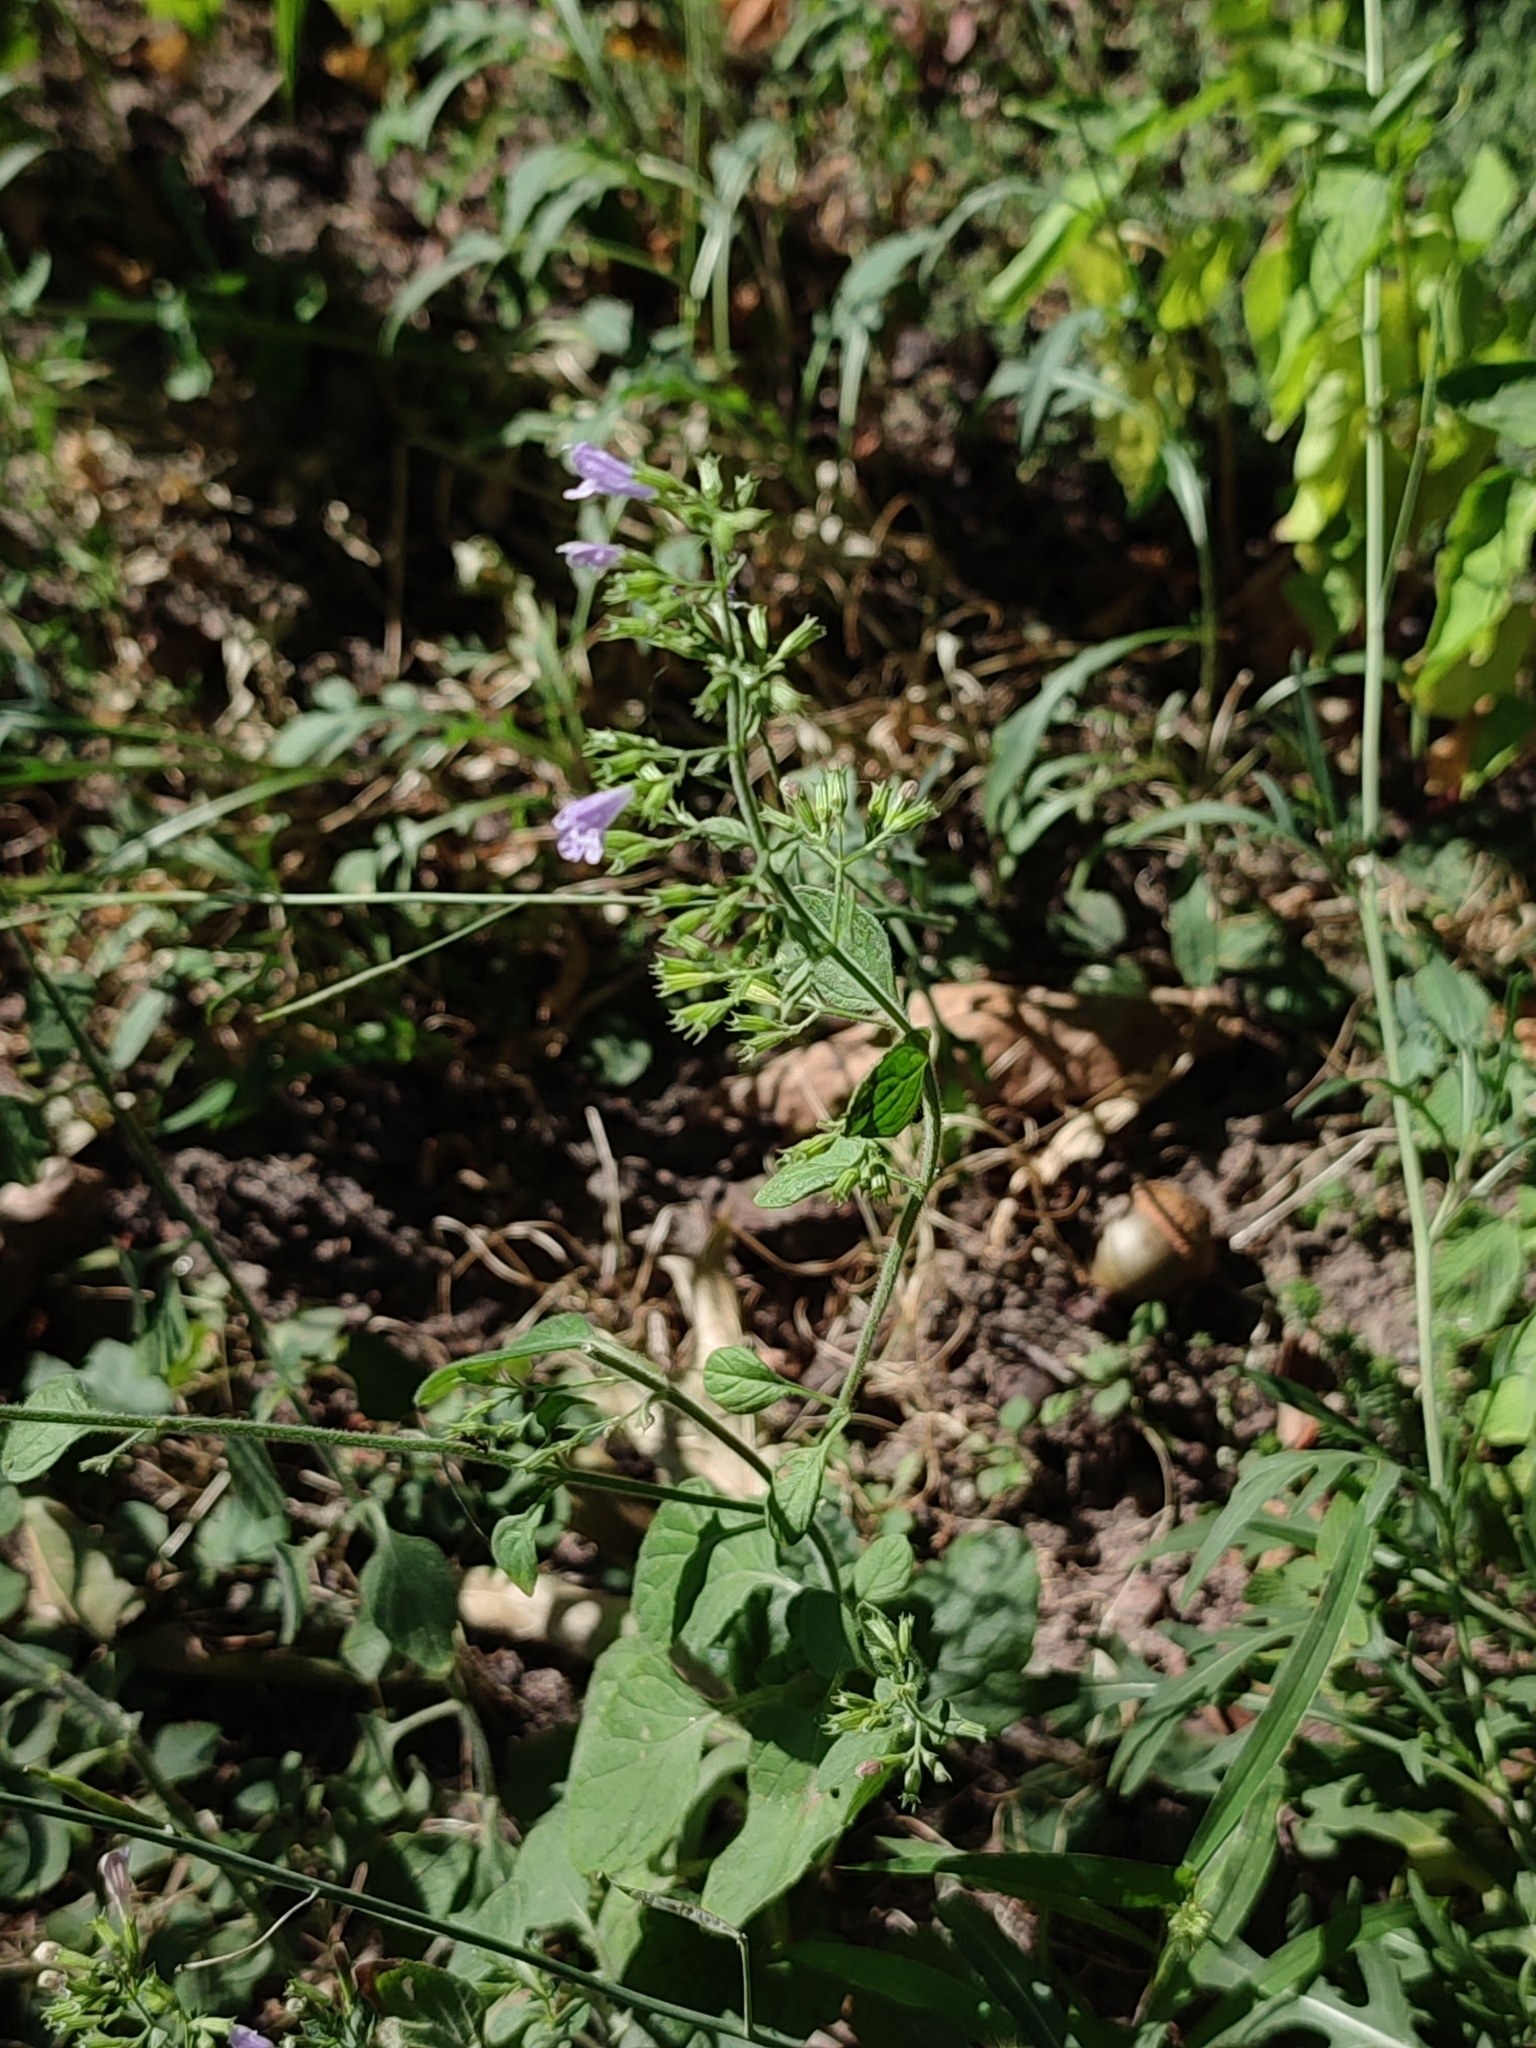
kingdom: Plantae
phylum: Tracheophyta
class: Magnoliopsida
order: Lamiales
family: Lamiaceae
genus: Clinopodium
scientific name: Clinopodium nepeta
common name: Lesser calamint
